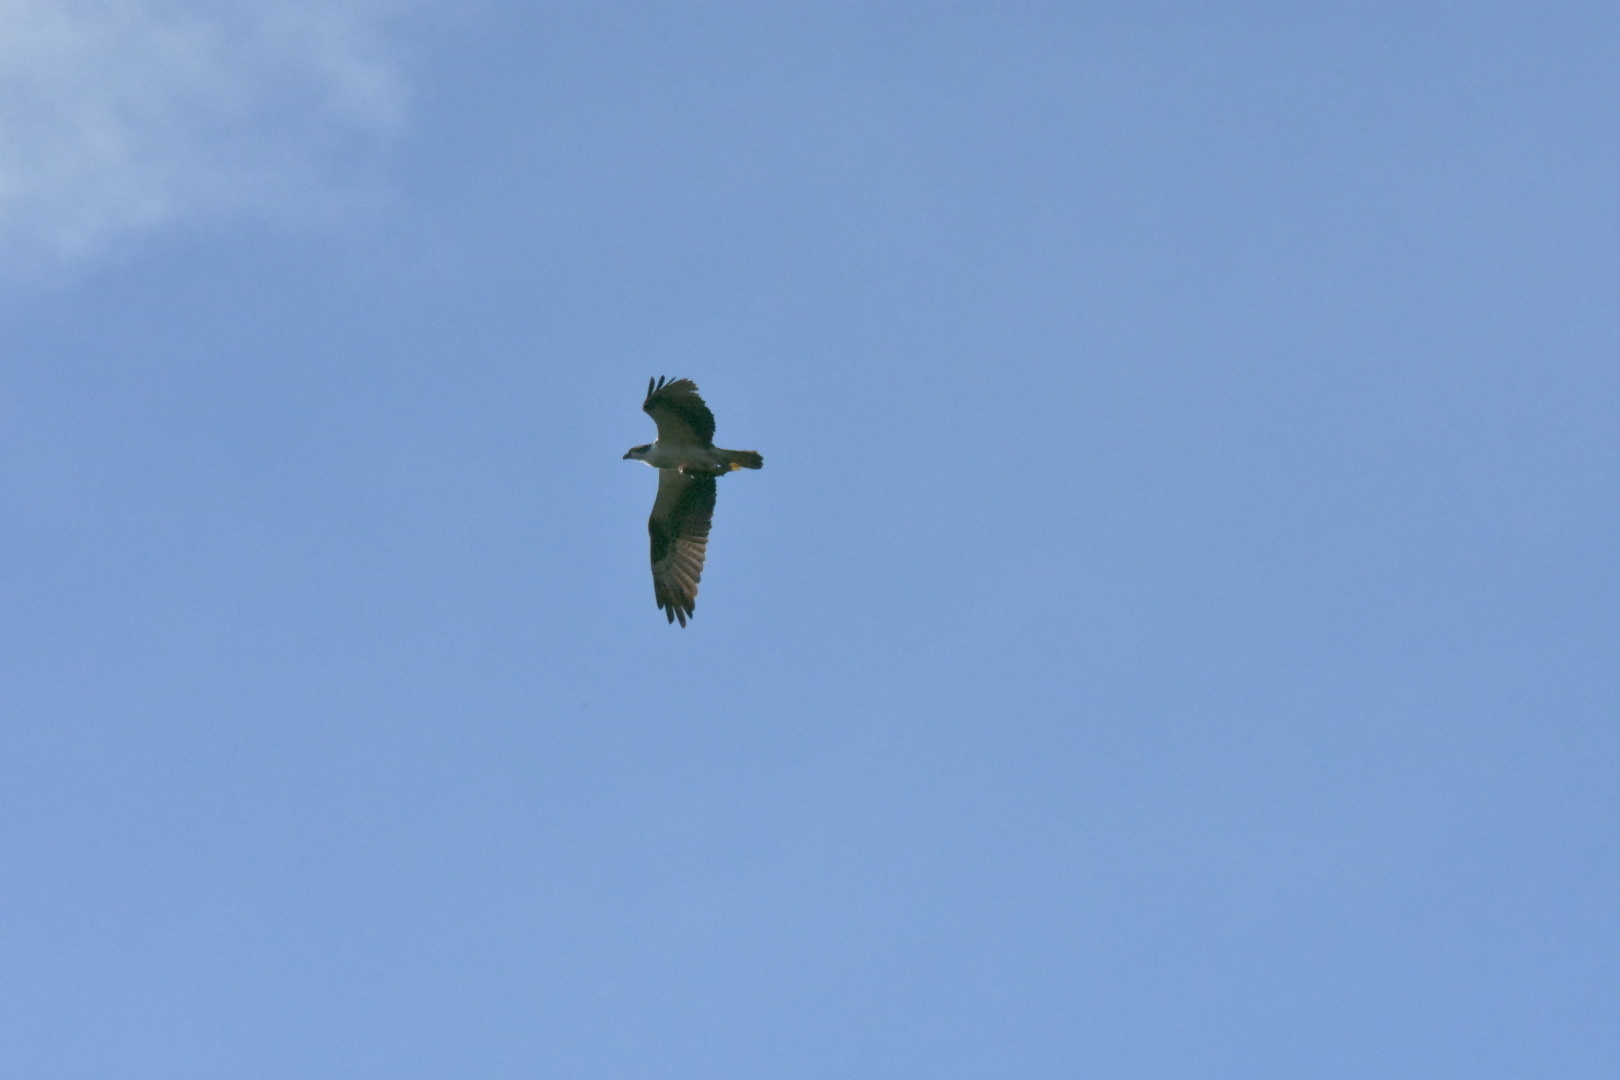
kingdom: Animalia
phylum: Chordata
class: Aves
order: Accipitriformes
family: Pandionidae
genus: Pandion
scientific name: Pandion haliaetus
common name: Osprey
